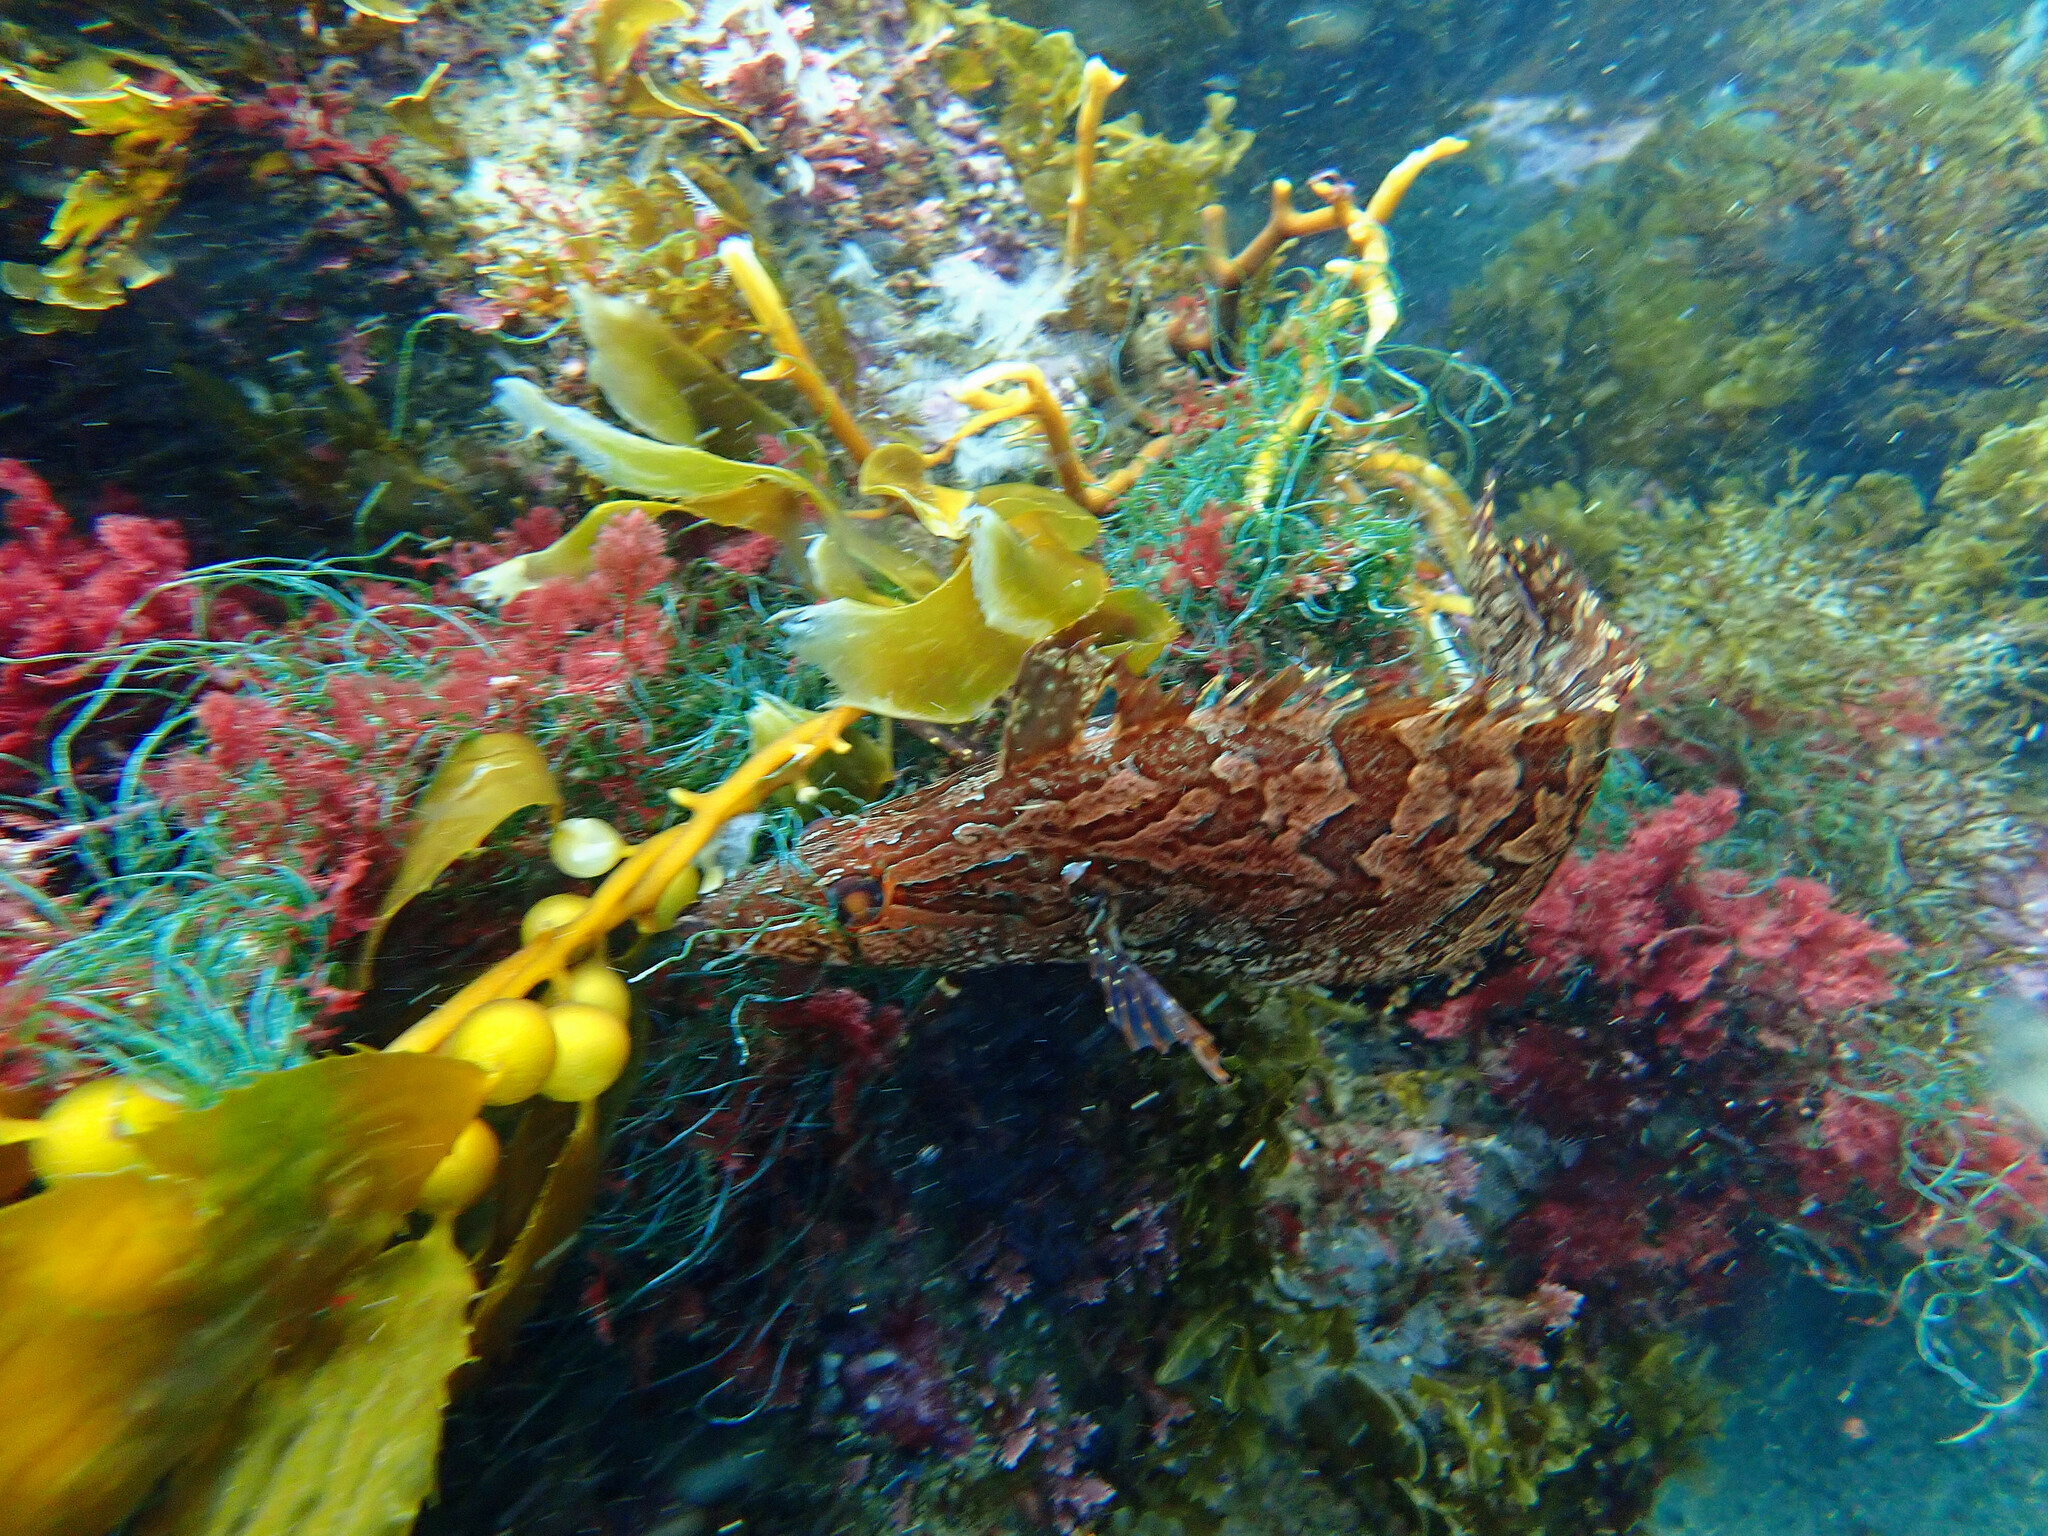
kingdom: Animalia
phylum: Chordata
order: Perciformes
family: Clinidae
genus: Heterostichus
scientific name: Heterostichus rostratus
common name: Giant kelpfish
